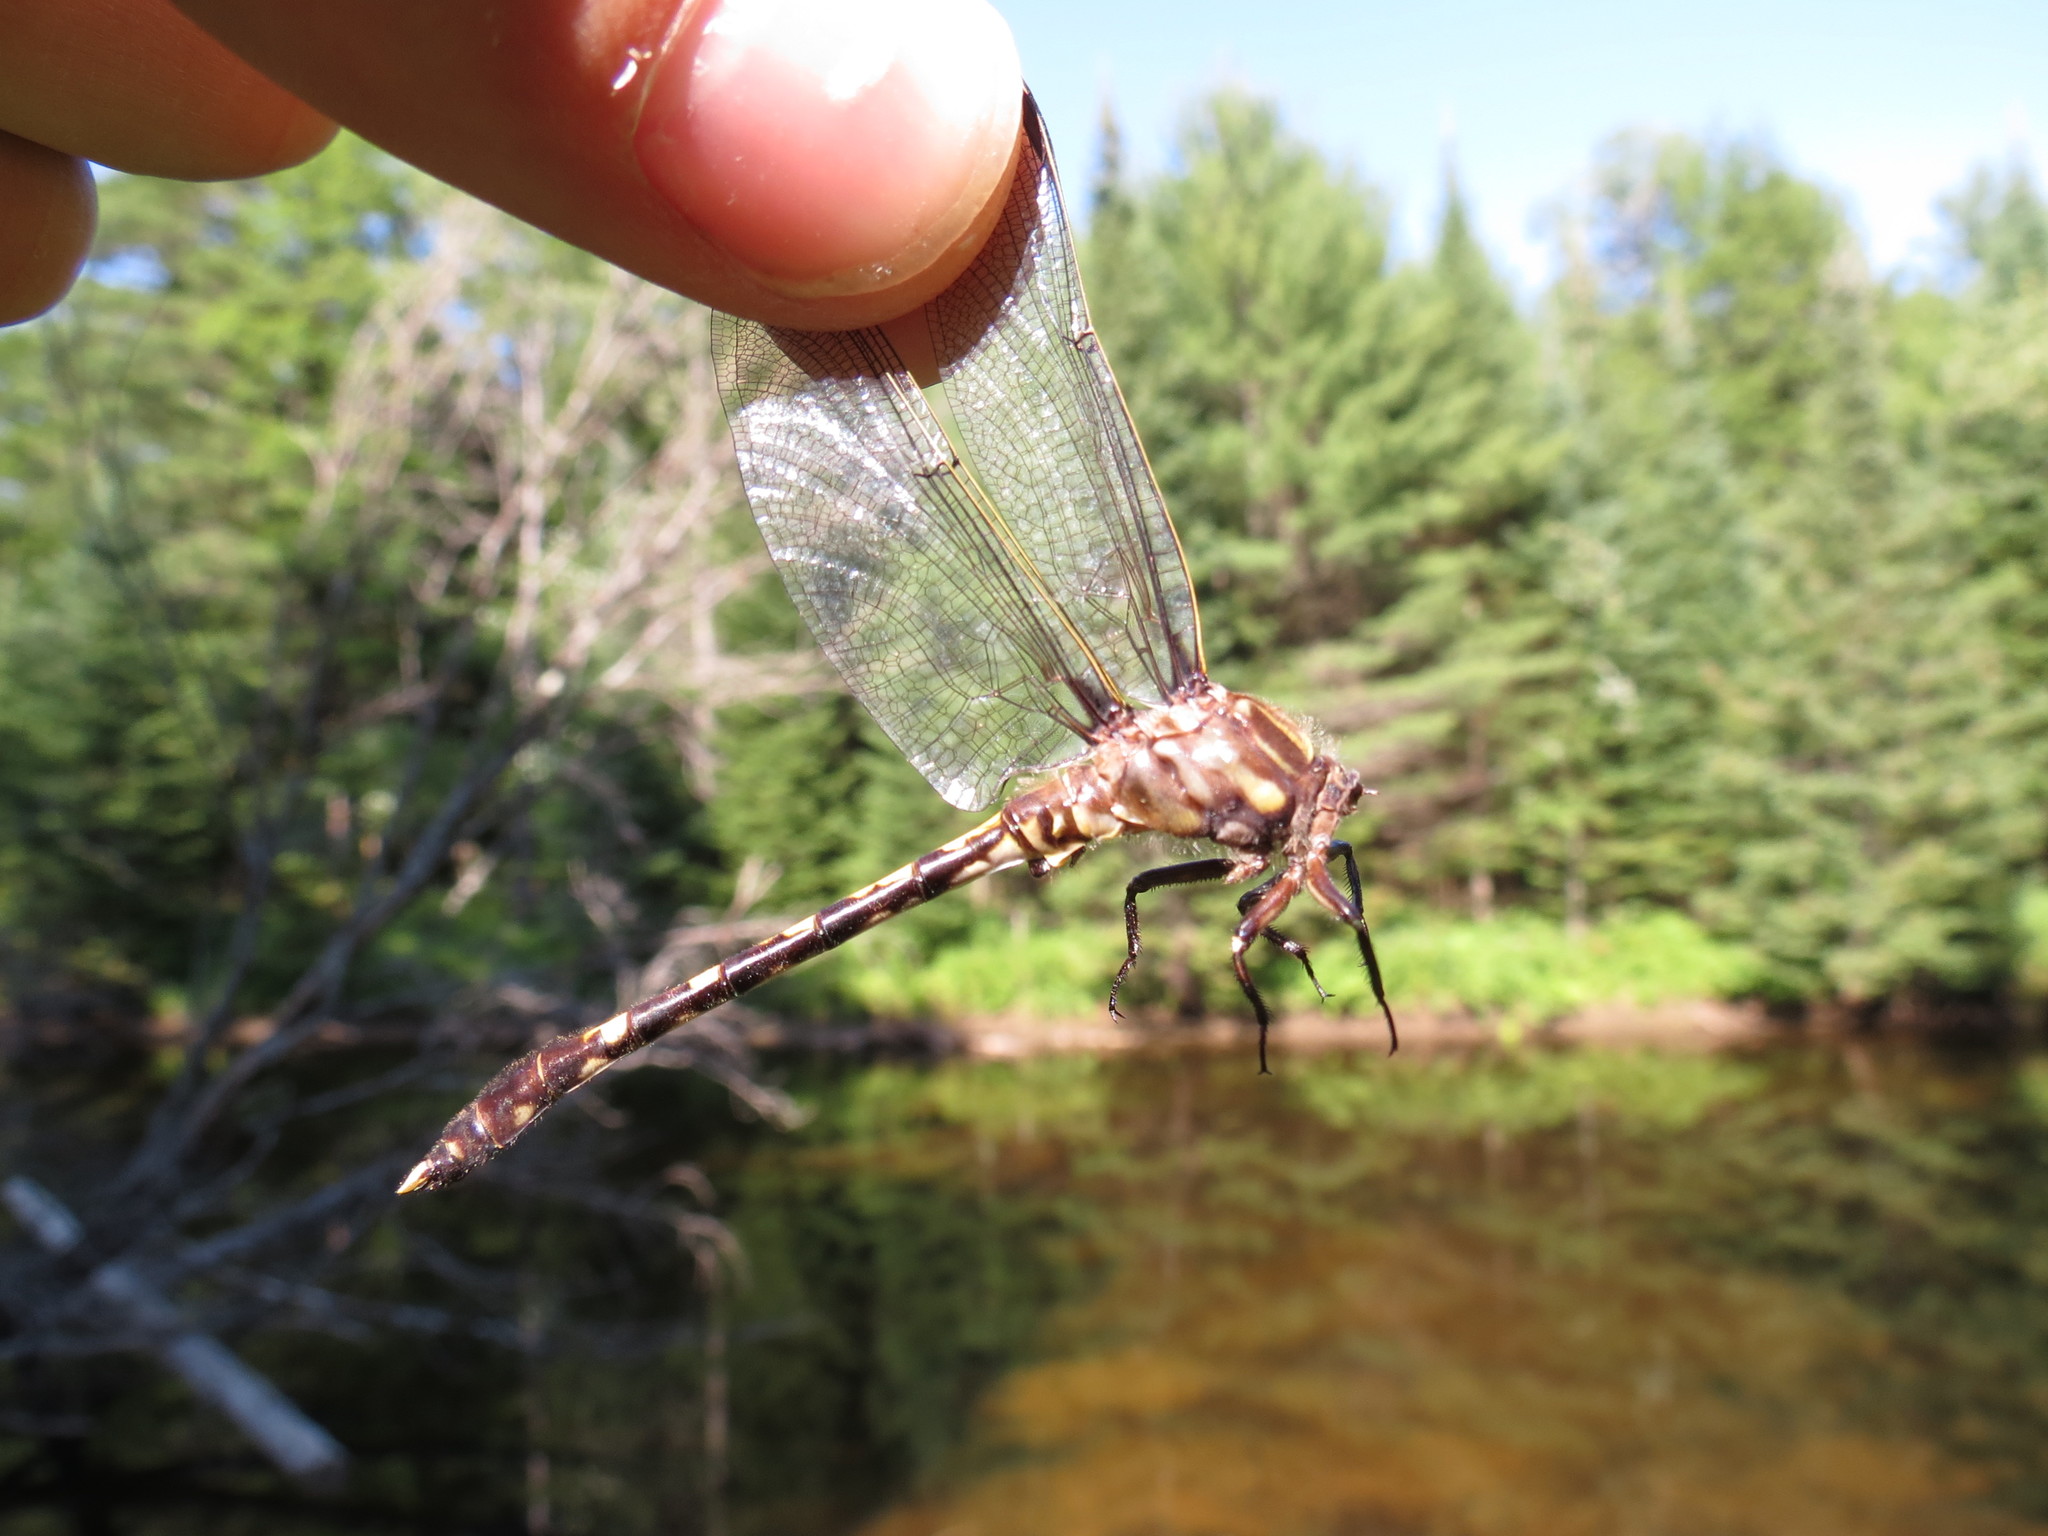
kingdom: Animalia
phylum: Arthropoda
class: Insecta
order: Odonata
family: Gomphidae
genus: Progomphus
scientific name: Progomphus obscurus
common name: Common sanddragon
